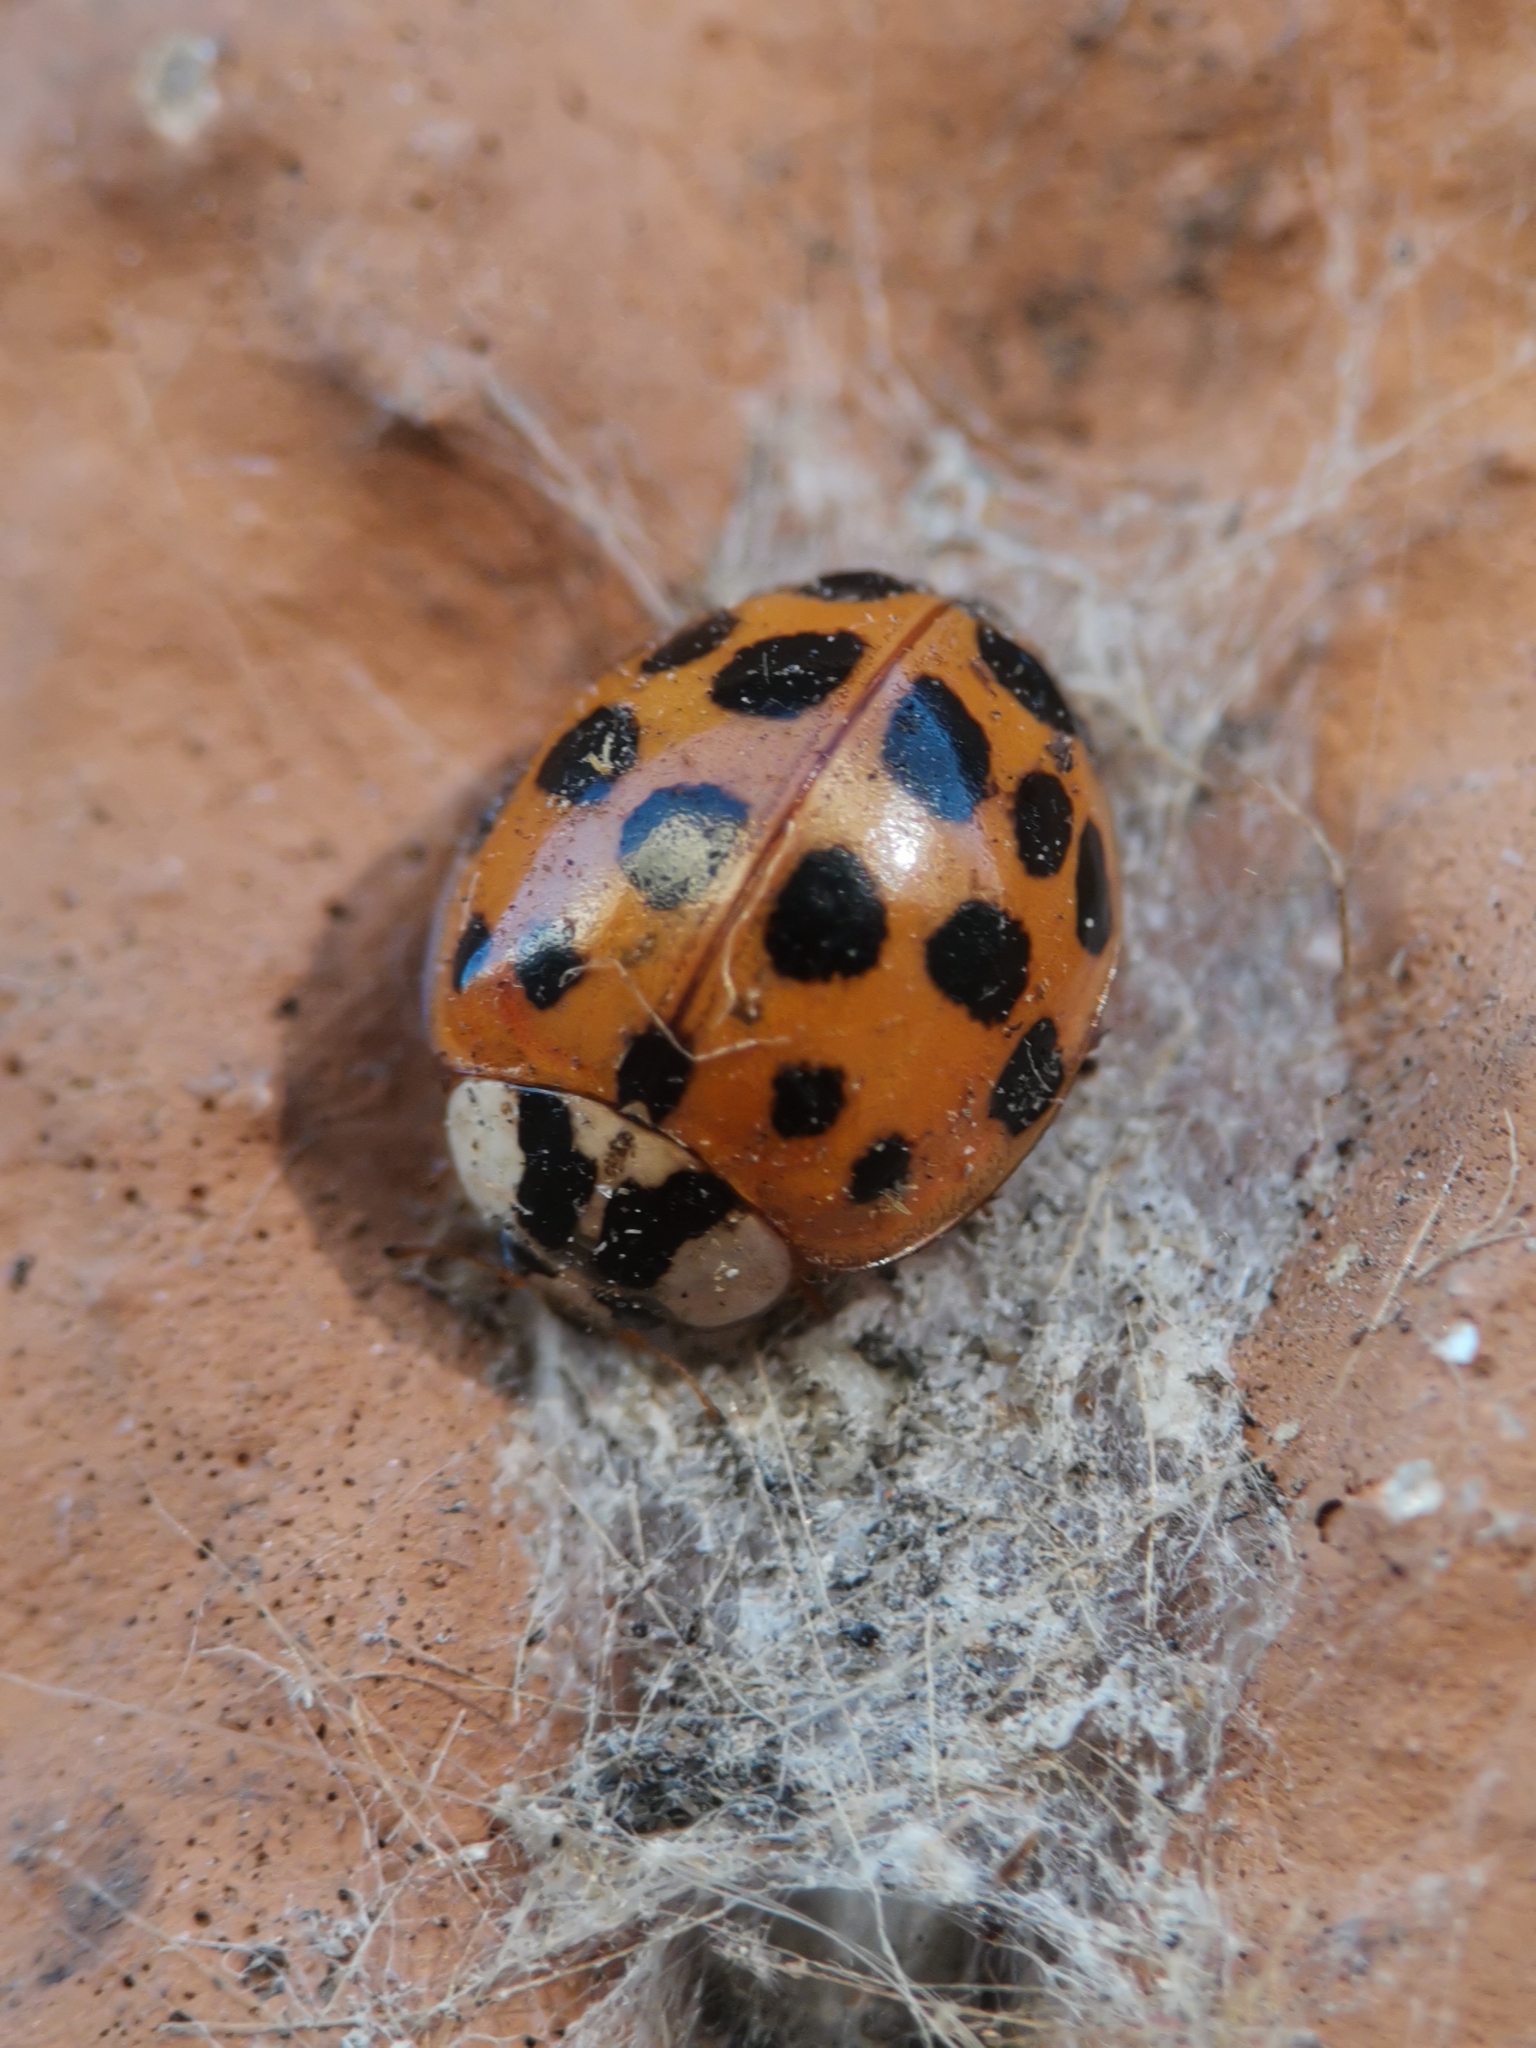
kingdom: Animalia
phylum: Arthropoda
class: Insecta
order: Coleoptera
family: Coccinellidae
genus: Harmonia
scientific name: Harmonia axyridis
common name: Harlequin ladybird
